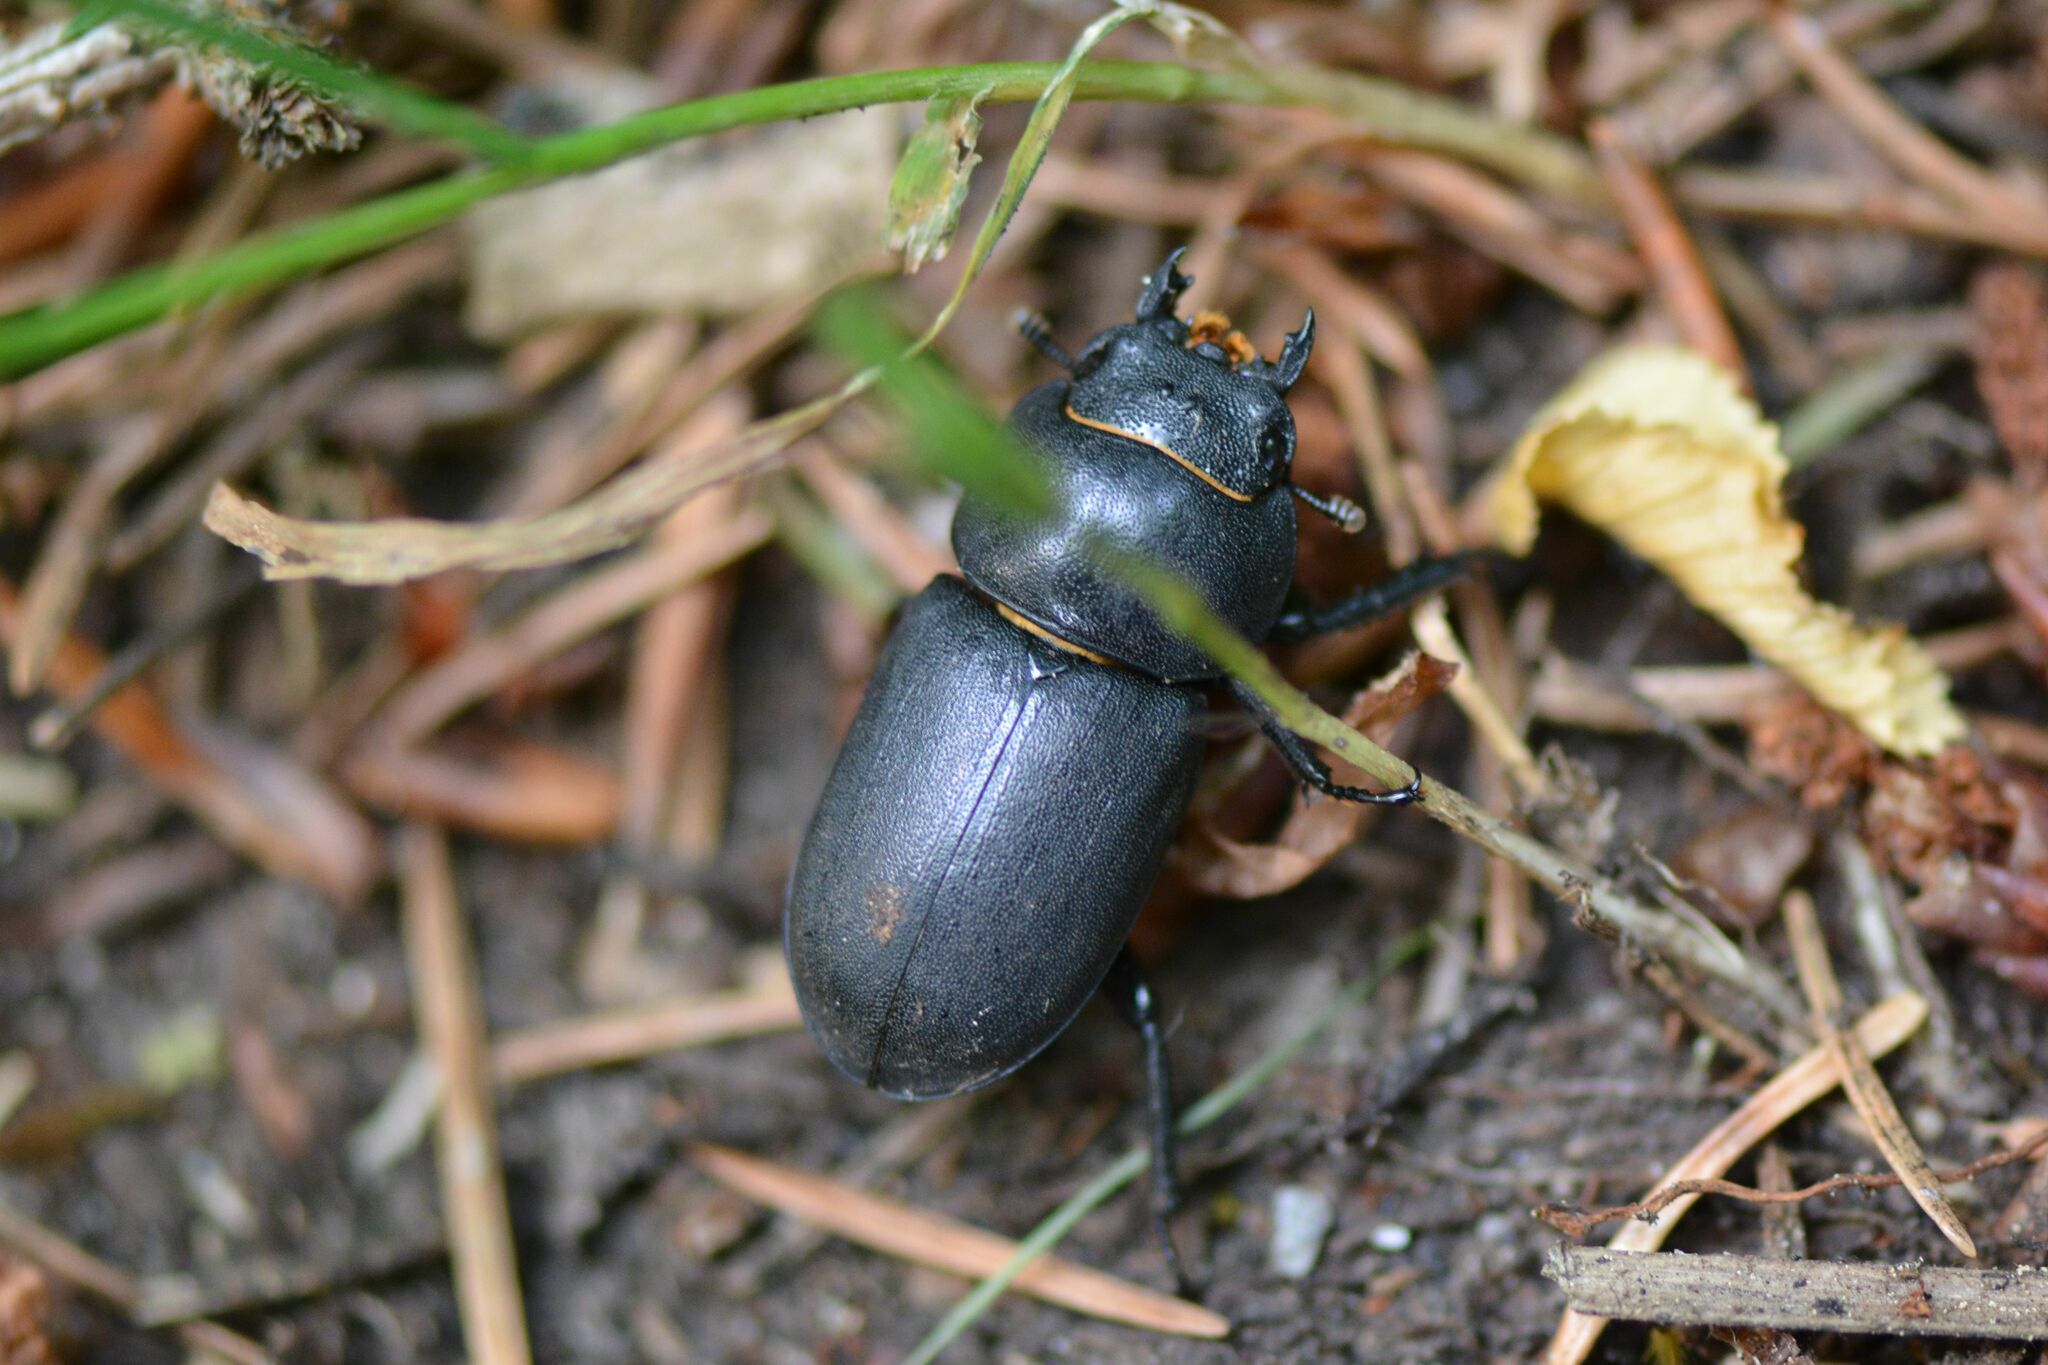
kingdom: Animalia
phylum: Arthropoda
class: Insecta
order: Coleoptera
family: Lucanidae
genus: Dorcus
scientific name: Dorcus parallelipipedus
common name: Lesser stag beetle
